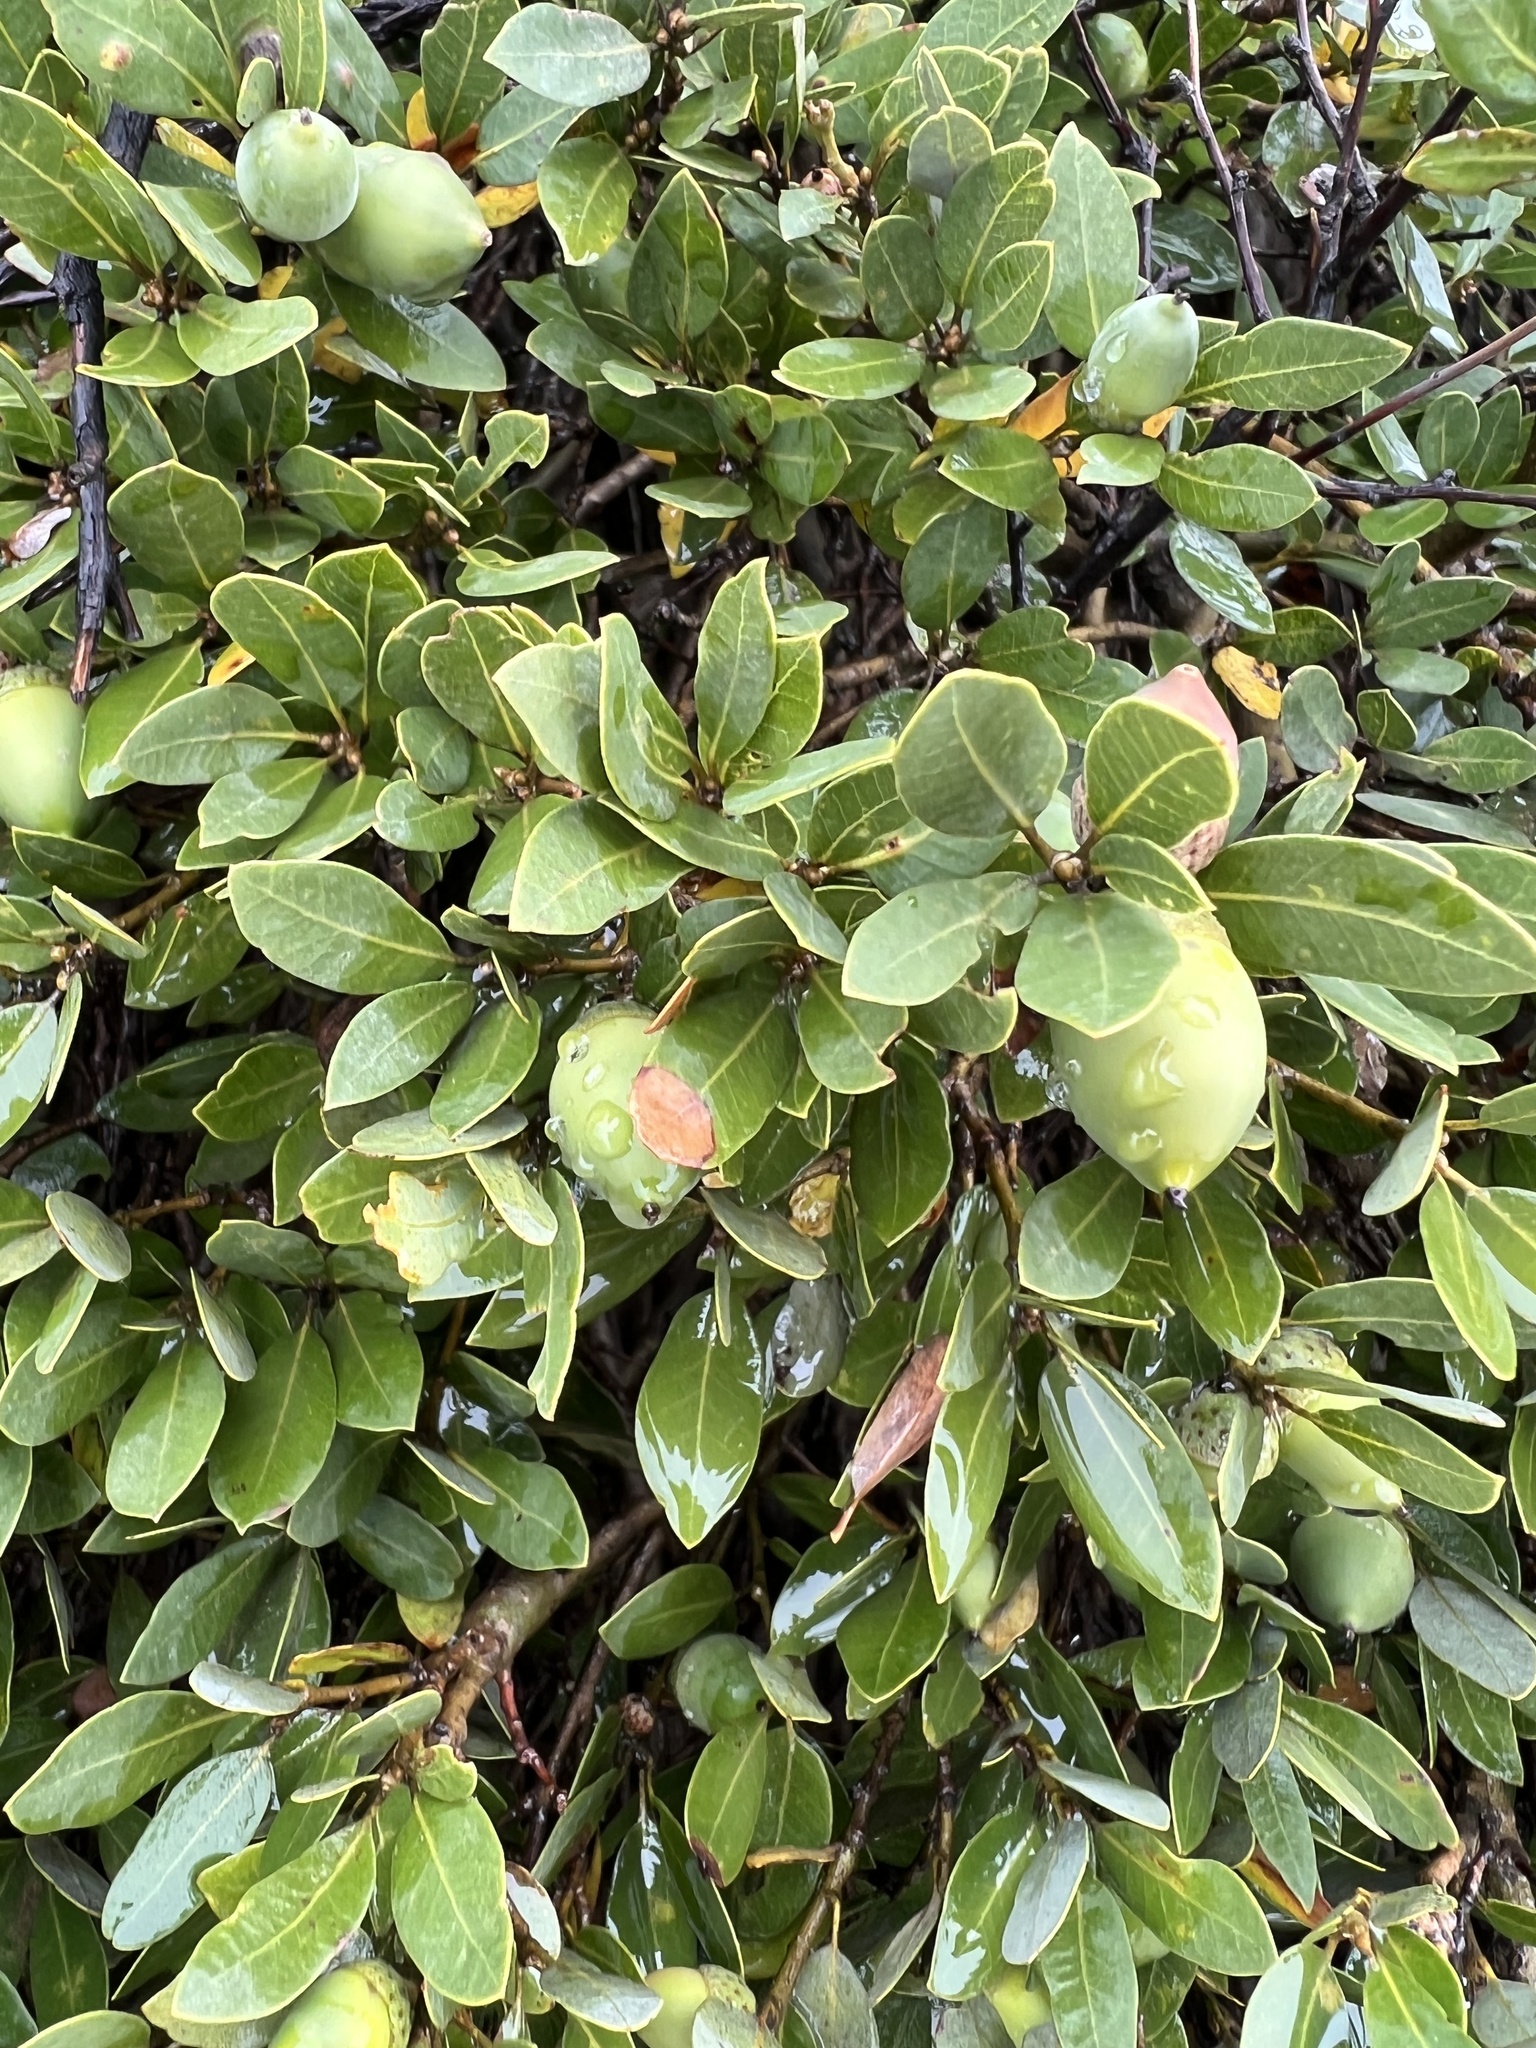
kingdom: Plantae
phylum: Tracheophyta
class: Magnoliopsida
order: Fagales
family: Fagaceae
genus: Quercus
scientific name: Quercus vacciniifolia
